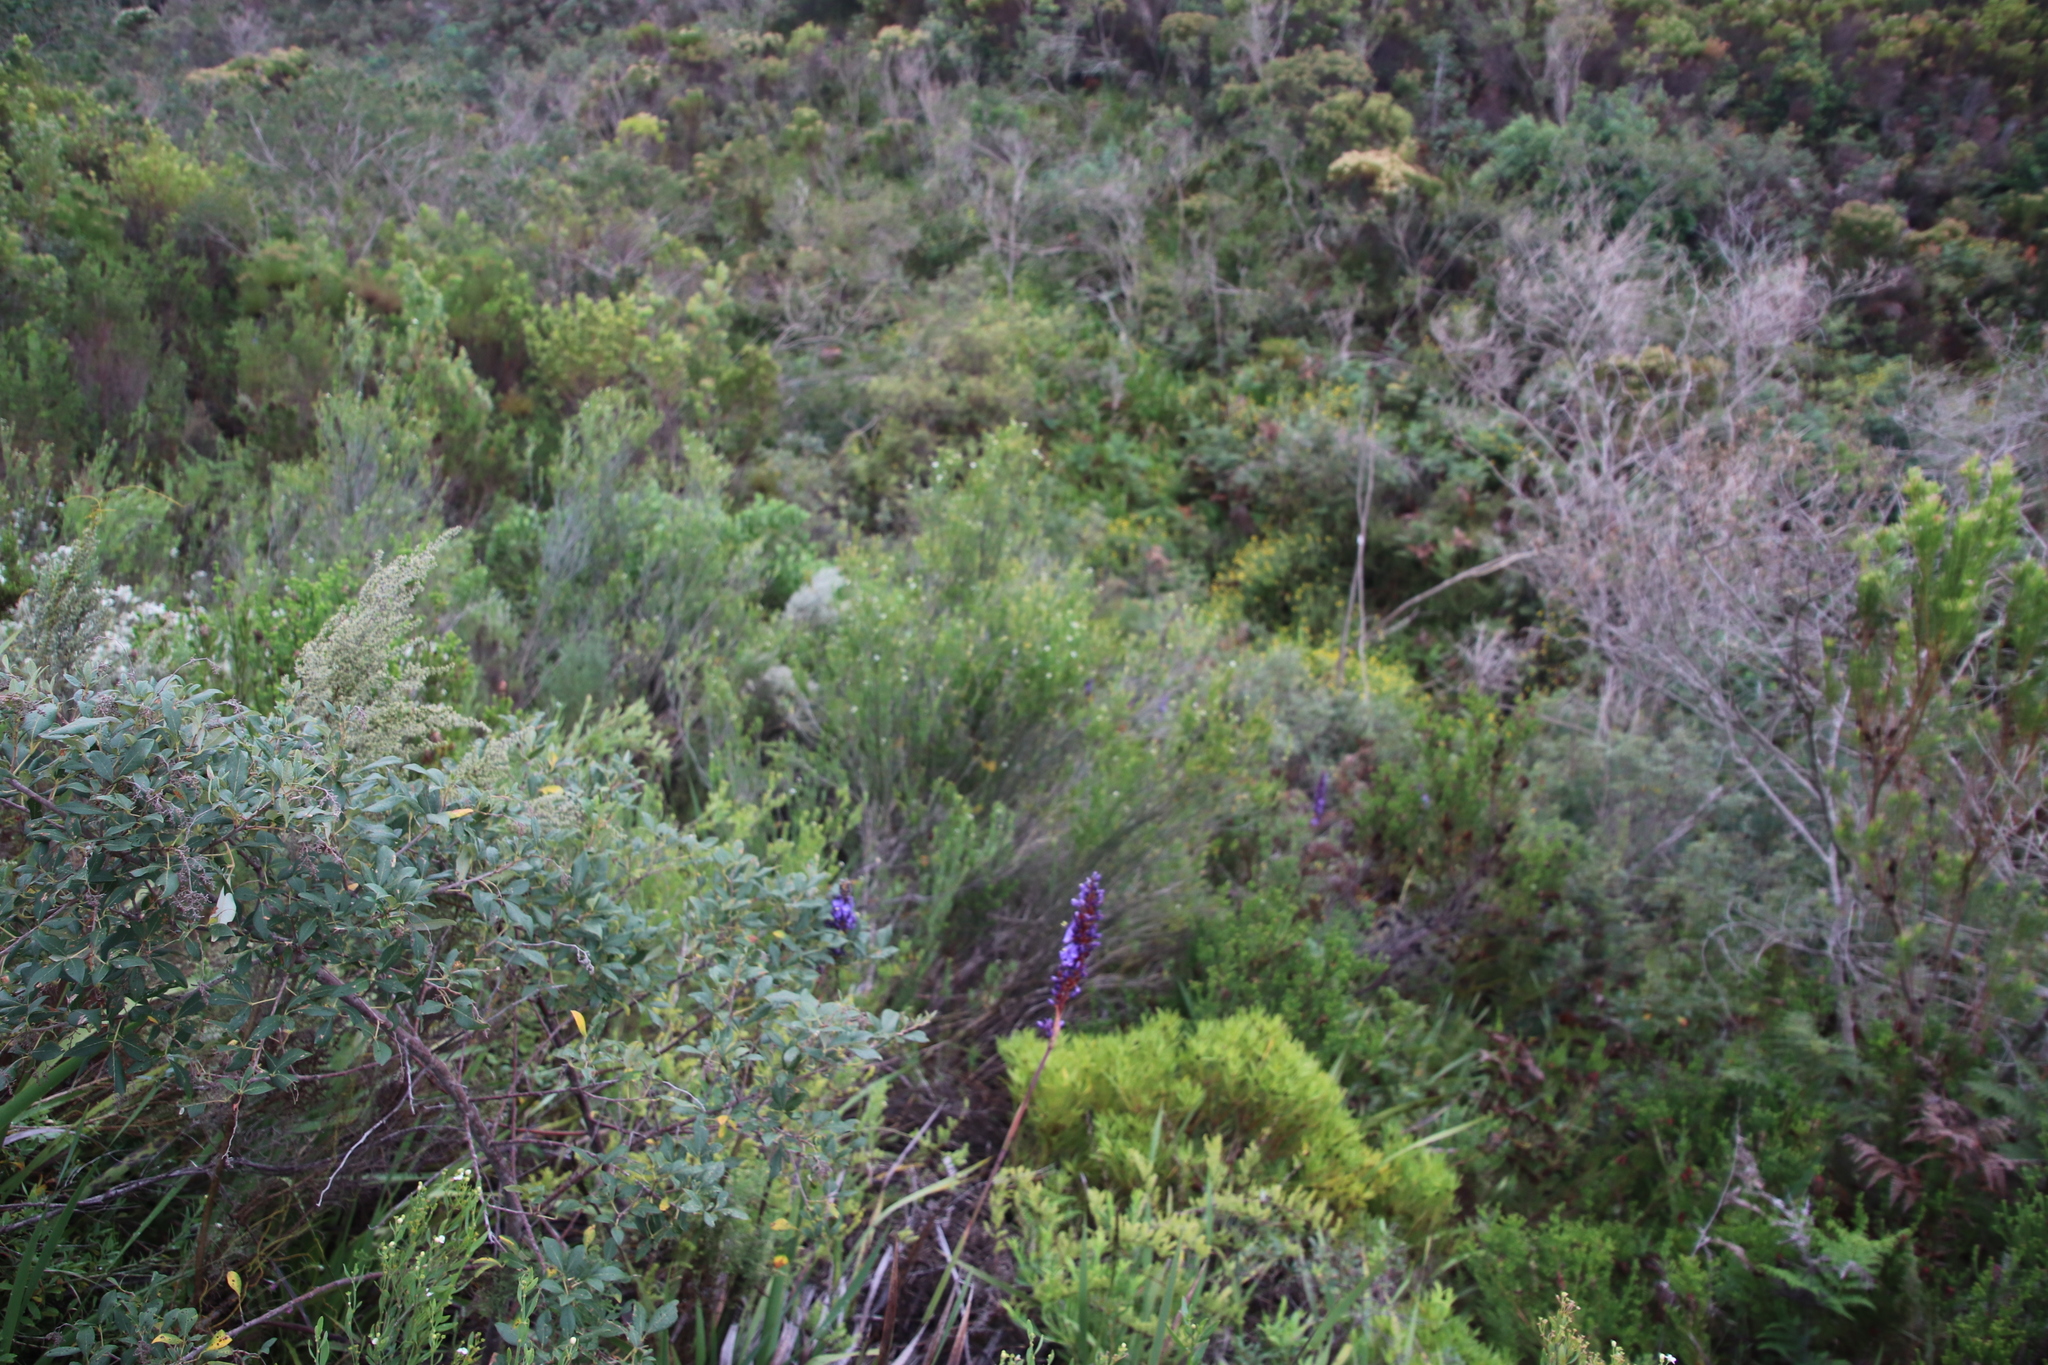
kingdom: Plantae
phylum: Tracheophyta
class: Magnoliopsida
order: Solanales
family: Montiniaceae
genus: Montinia
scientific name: Montinia caryophyllacea
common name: Wild clove-bush
